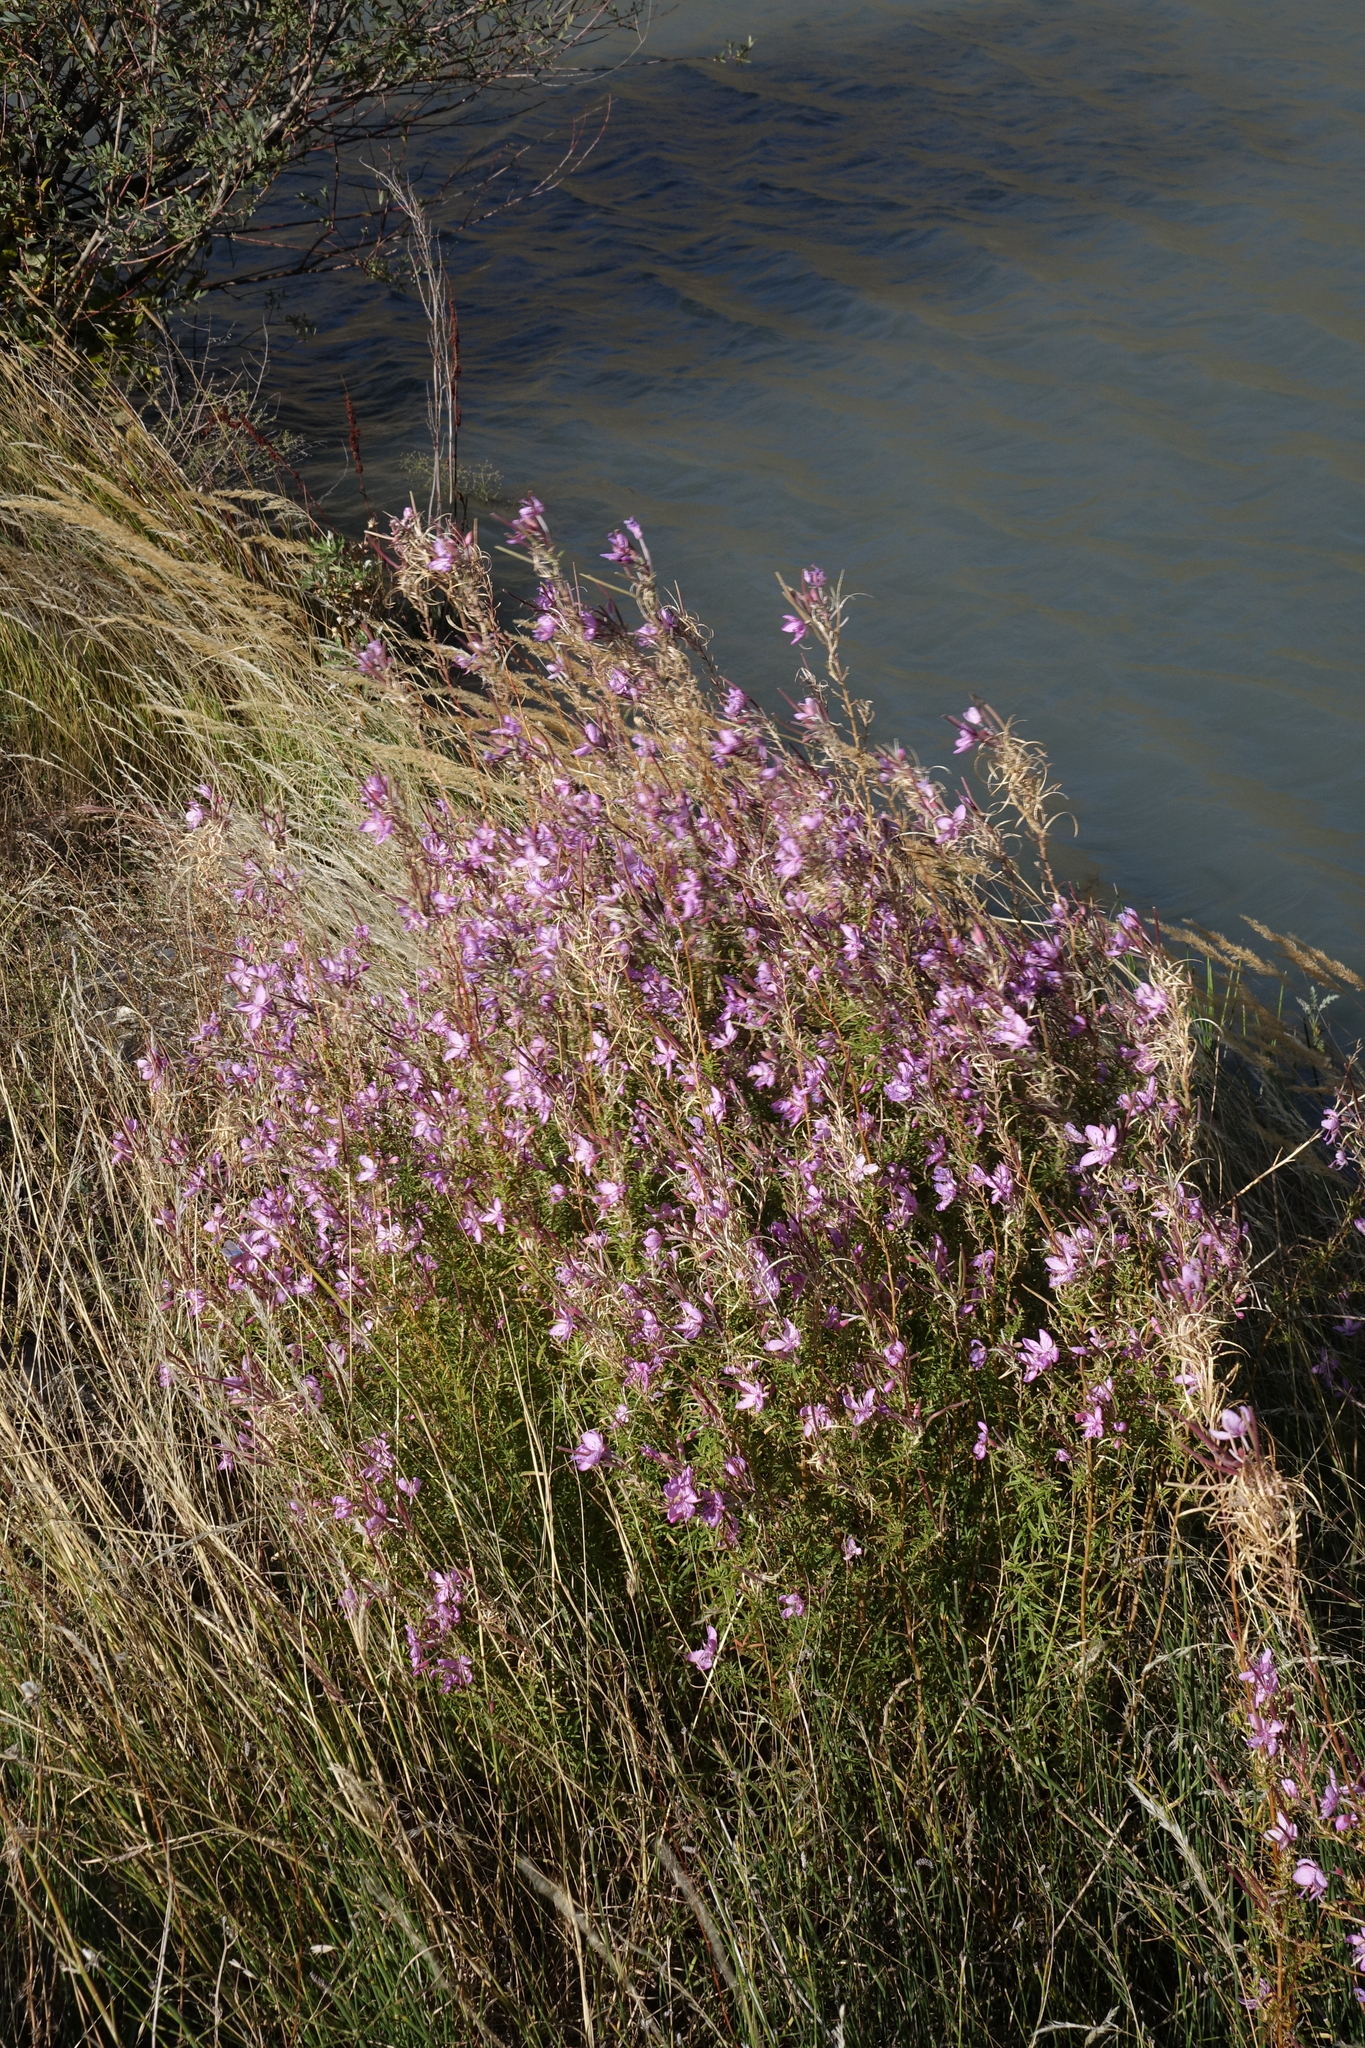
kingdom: Plantae
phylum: Tracheophyta
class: Magnoliopsida
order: Myrtales
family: Onagraceae
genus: Chamaenerion
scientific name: Chamaenerion colchicum
